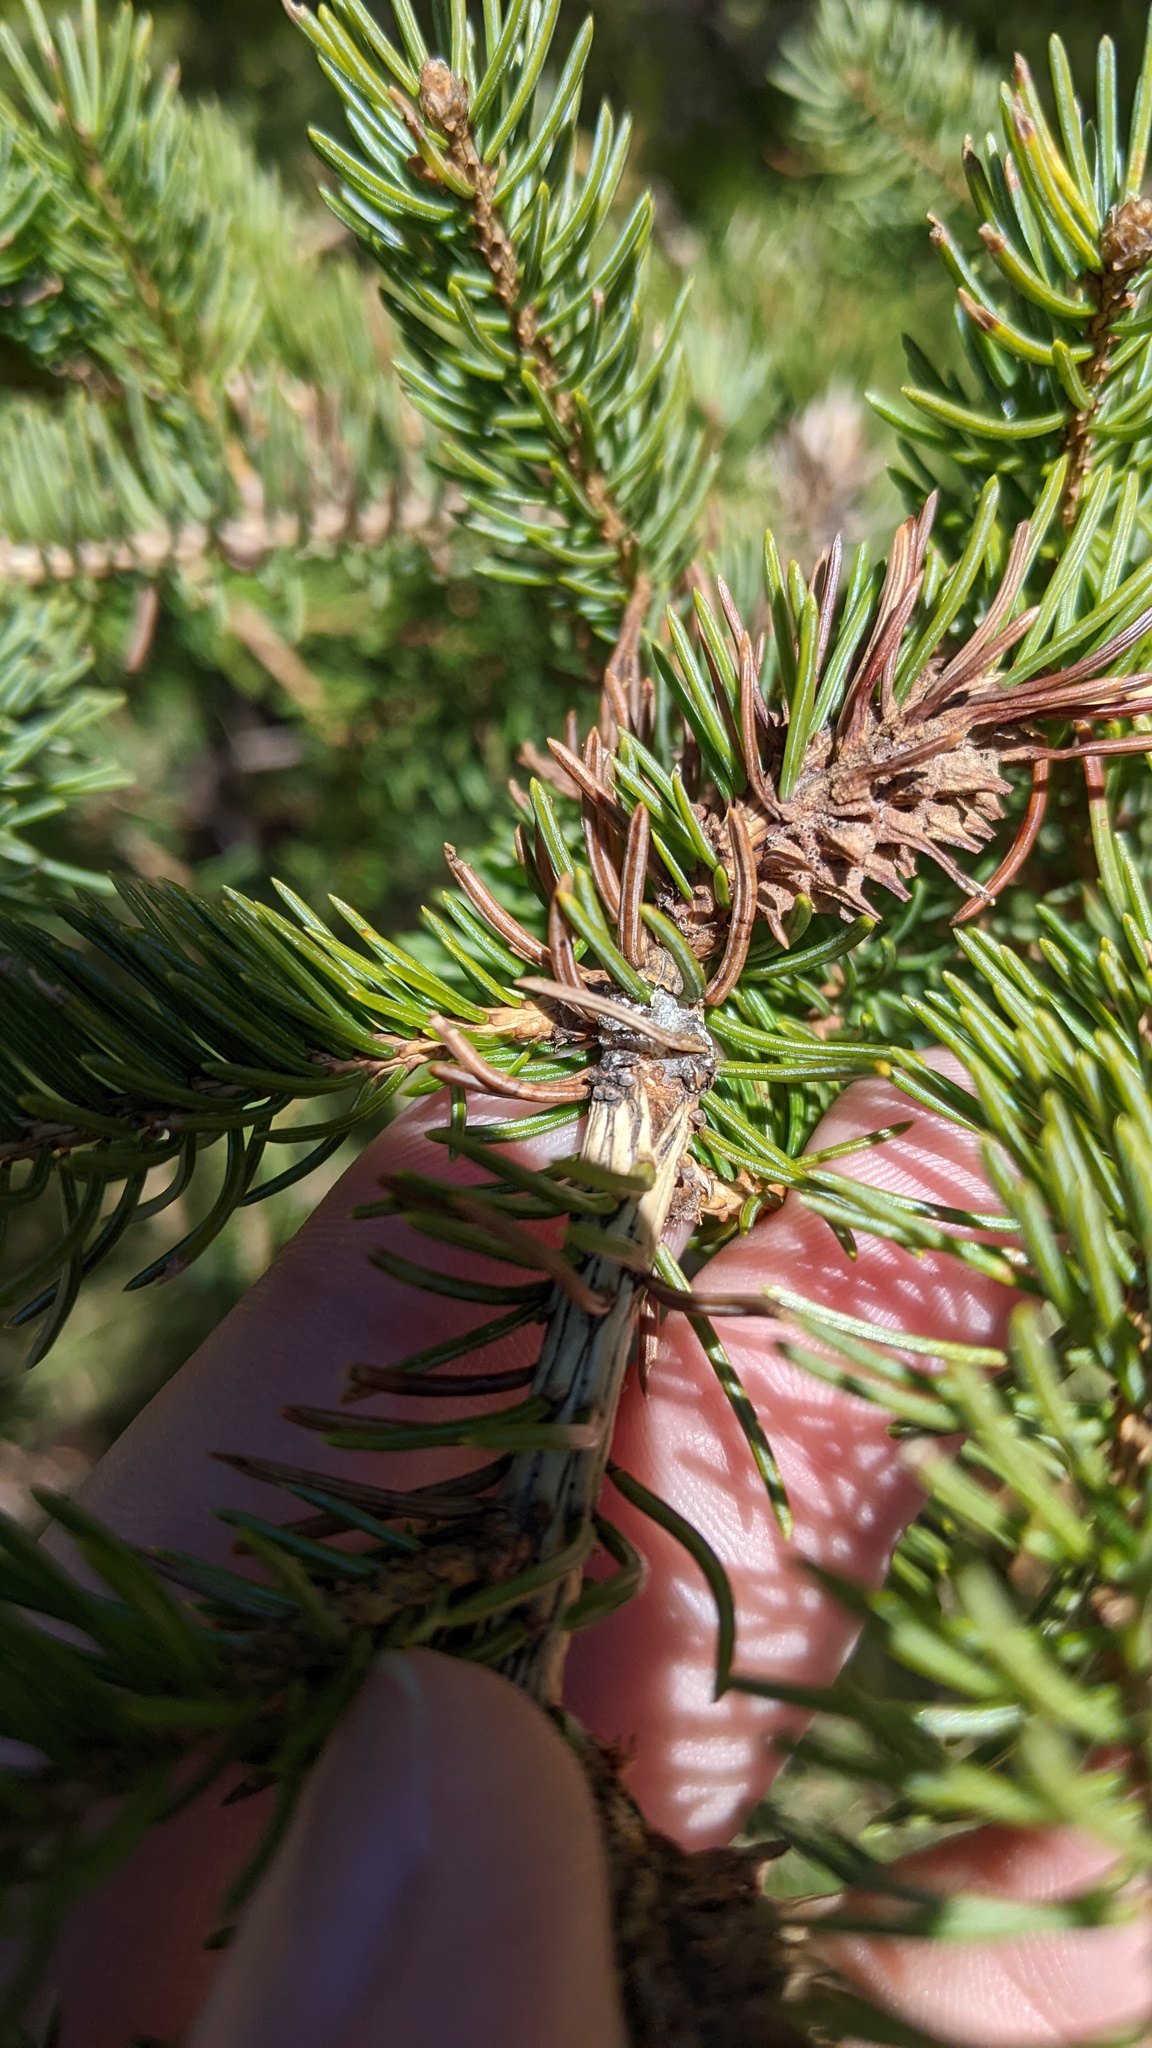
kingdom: Plantae
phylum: Tracheophyta
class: Pinopsida
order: Pinales
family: Pinaceae
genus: Picea
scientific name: Picea glauca
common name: White spruce
